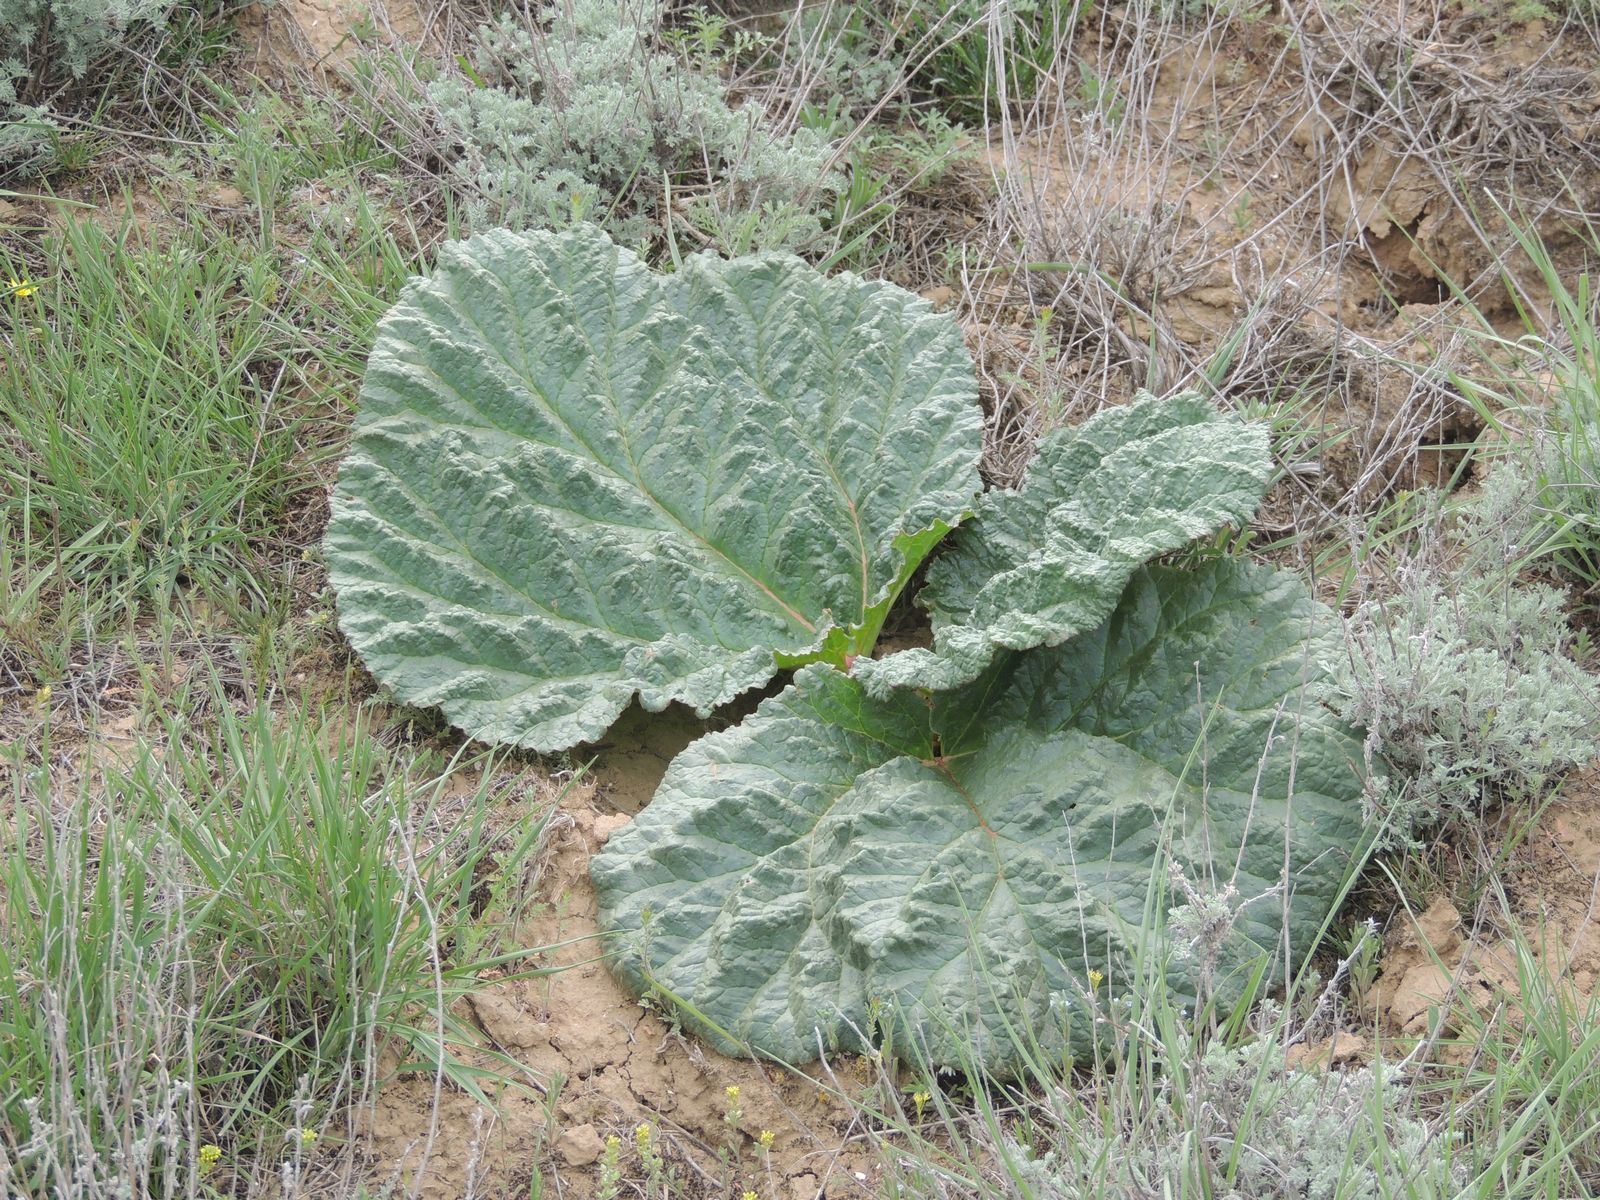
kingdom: Plantae
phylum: Tracheophyta
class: Magnoliopsida
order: Caryophyllales
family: Polygonaceae
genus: Rheum
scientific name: Rheum tataricum
